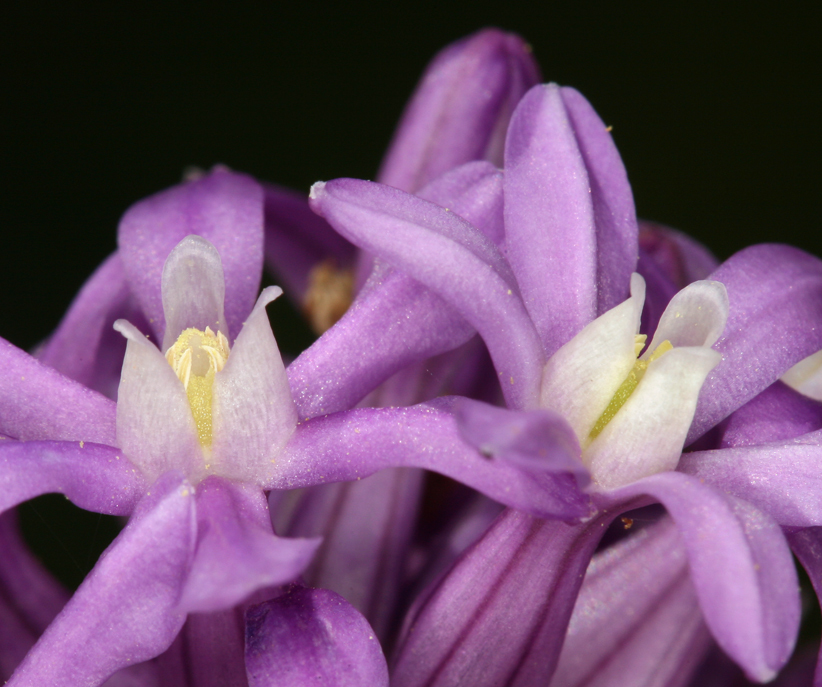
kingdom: Plantae
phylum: Tracheophyta
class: Liliopsida
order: Asparagales
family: Asparagaceae
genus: Dichelostemma
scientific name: Dichelostemma multiflorum
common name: Round-tooth ookow
